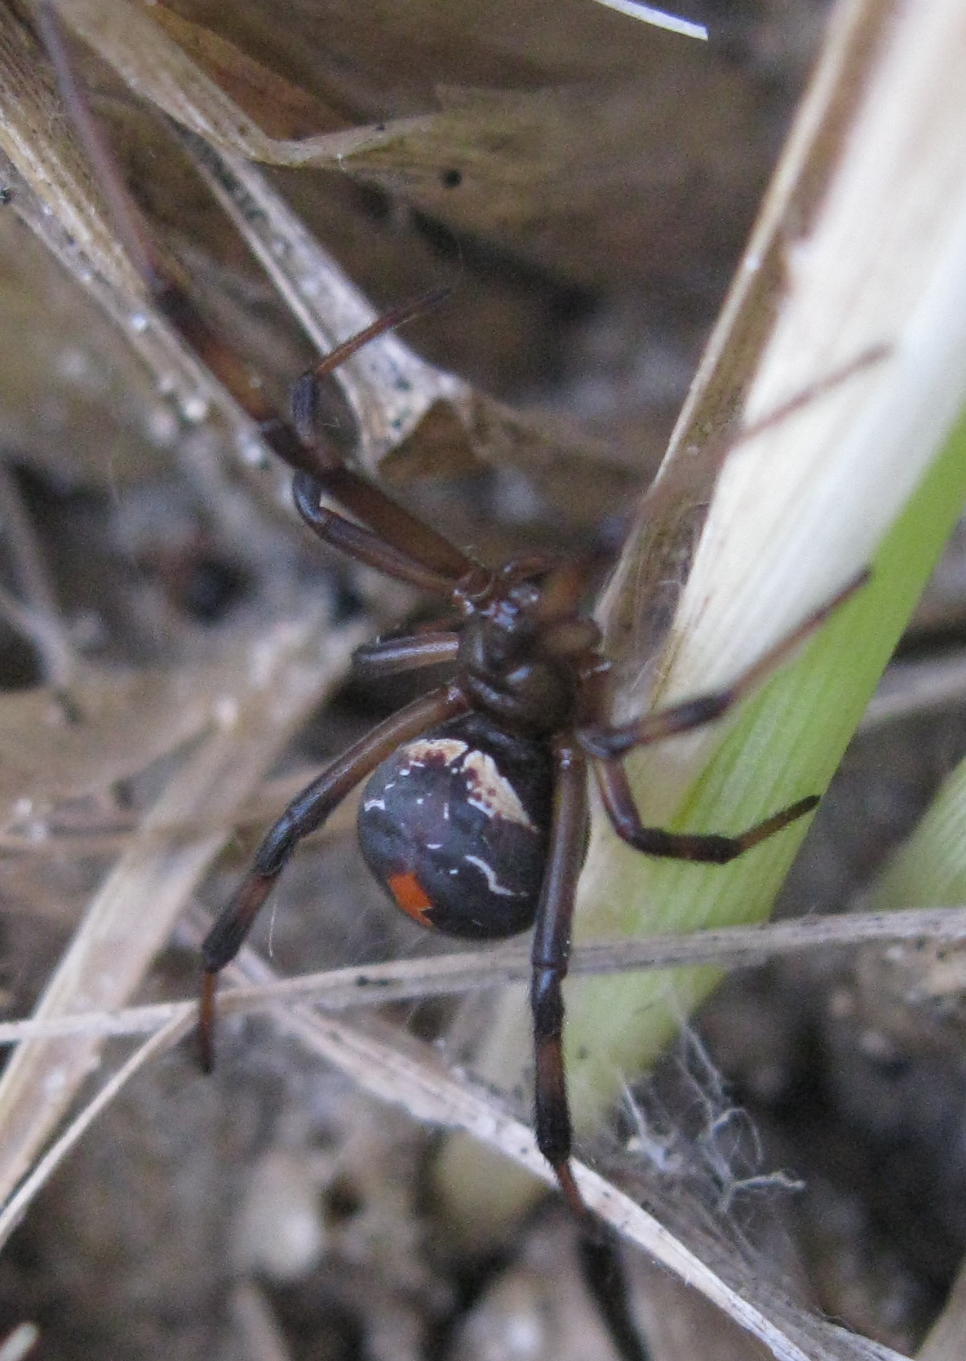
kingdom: Animalia
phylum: Arthropoda
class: Arachnida
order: Araneae
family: Theridiidae
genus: Latrodectus
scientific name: Latrodectus katipo
